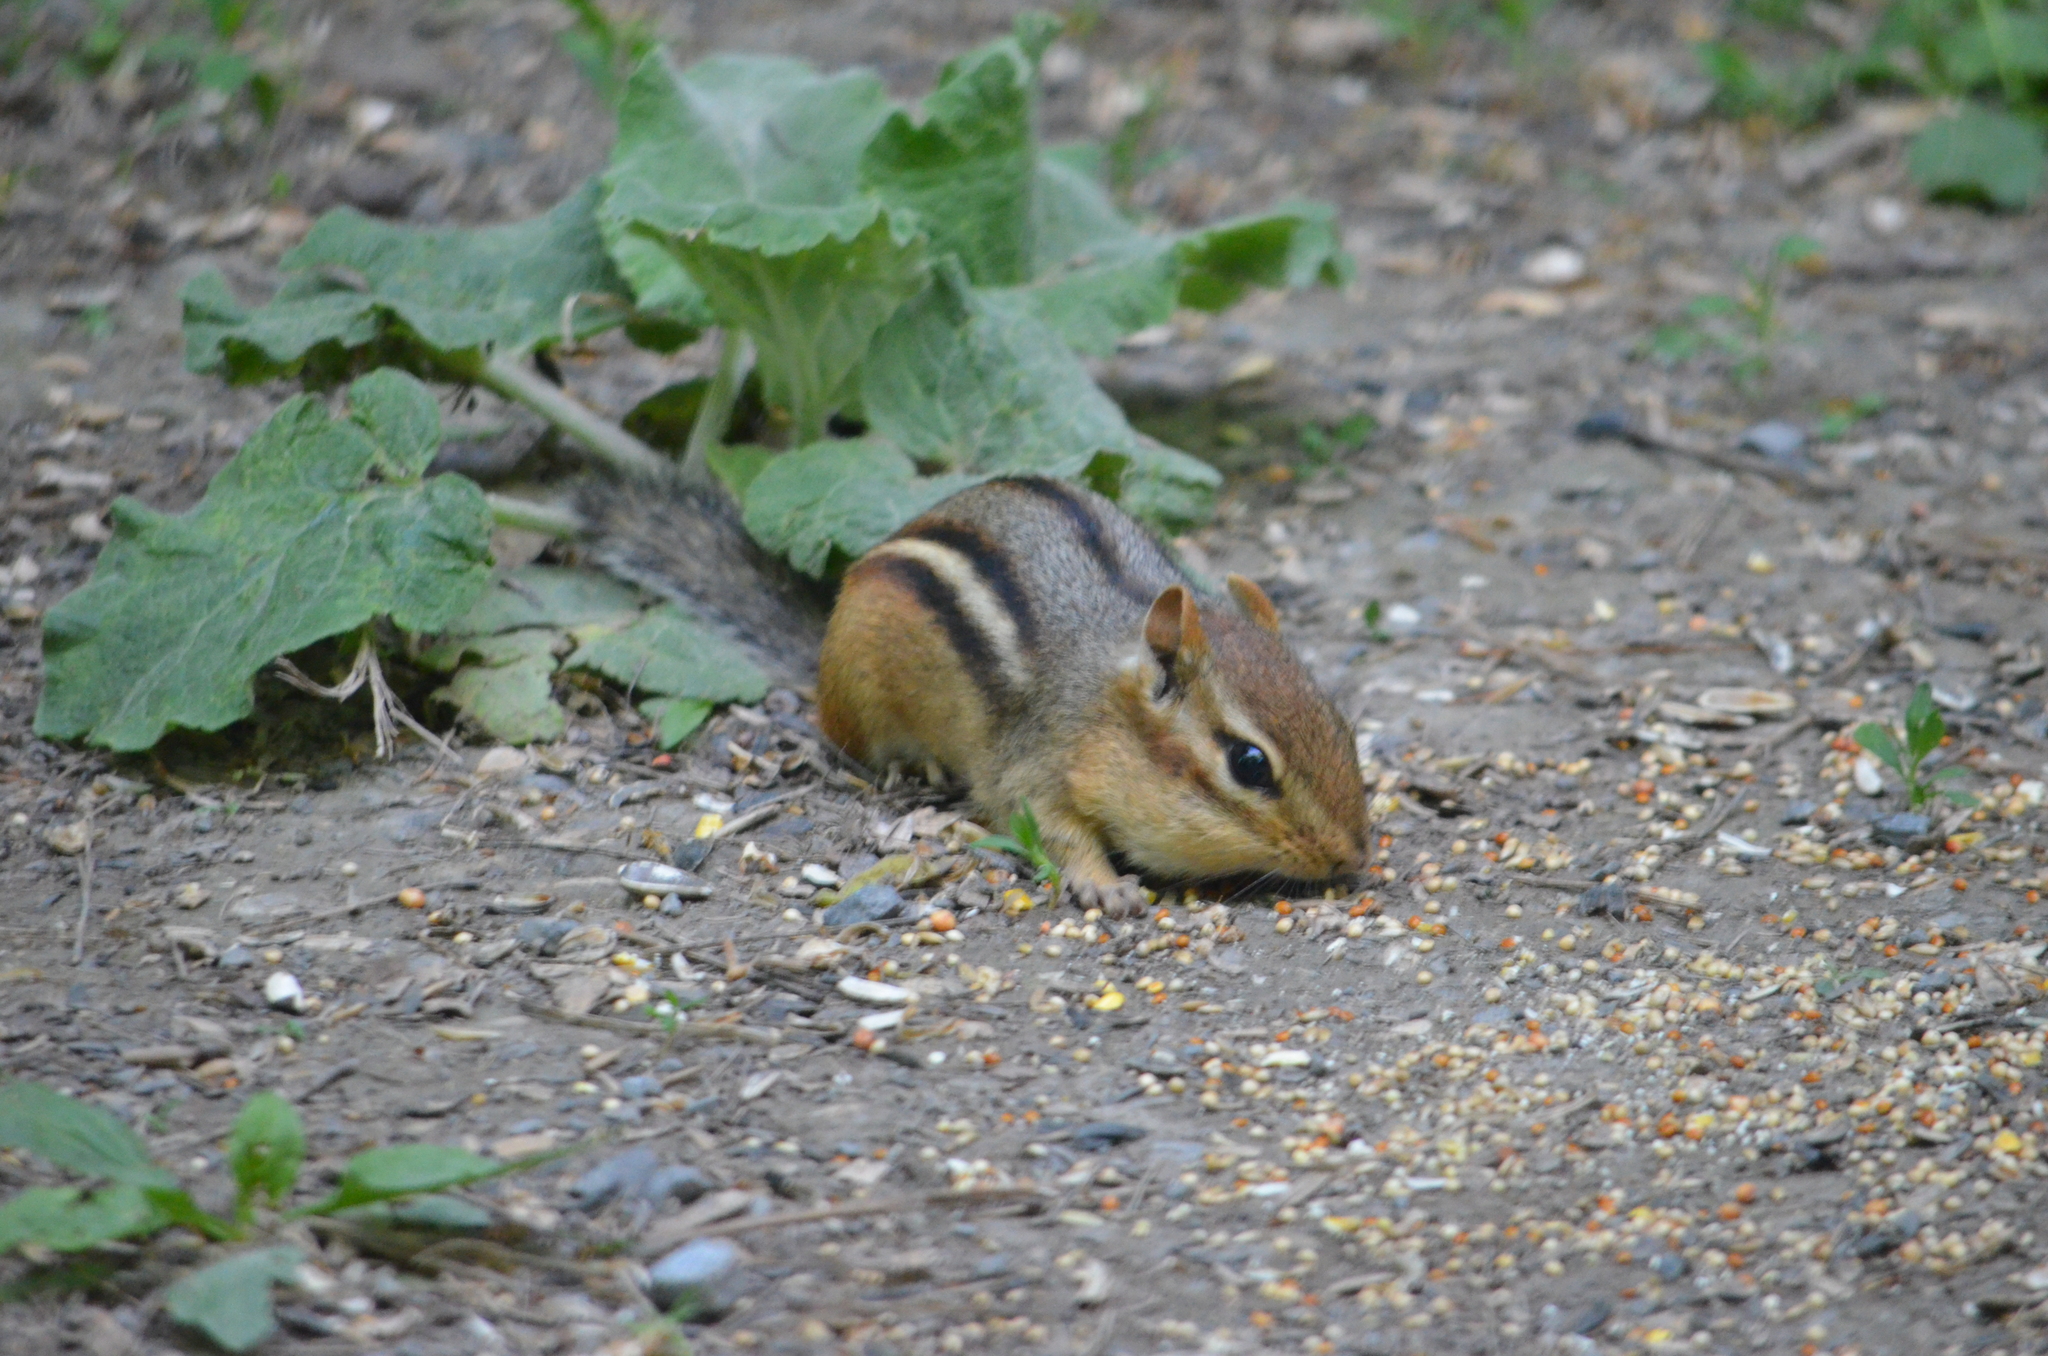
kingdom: Animalia
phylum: Chordata
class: Mammalia
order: Rodentia
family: Sciuridae
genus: Tamias
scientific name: Tamias striatus
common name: Eastern chipmunk
